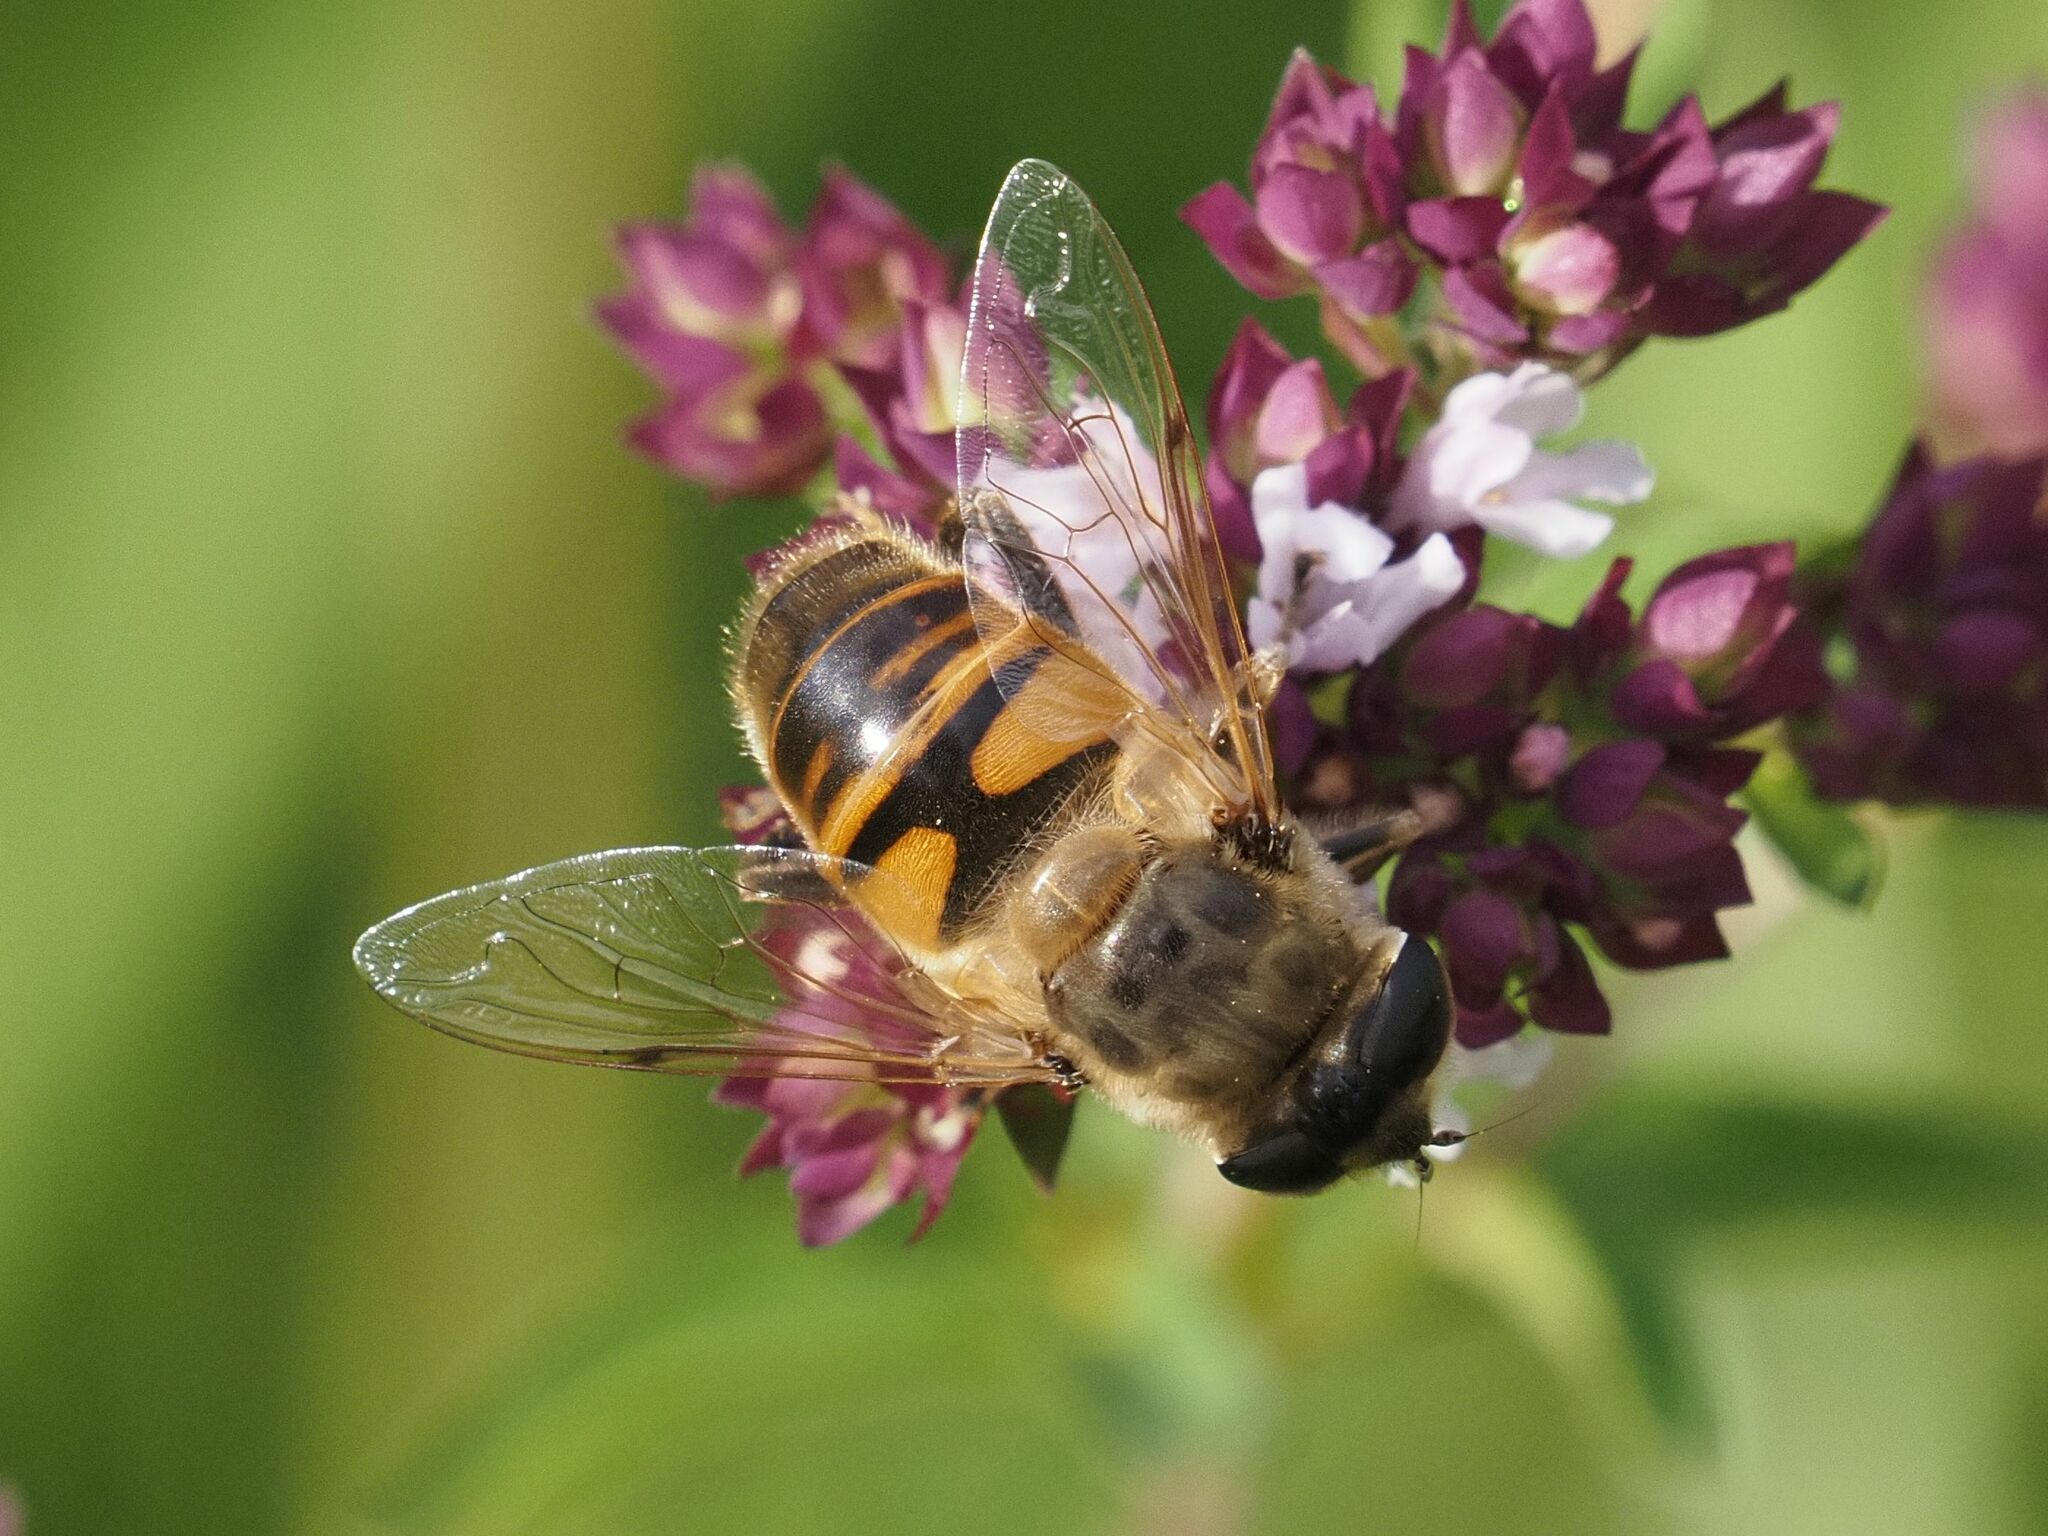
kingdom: Animalia
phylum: Arthropoda
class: Insecta
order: Diptera
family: Syrphidae
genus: Eristalis
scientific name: Eristalis tenax
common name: Drone fly
